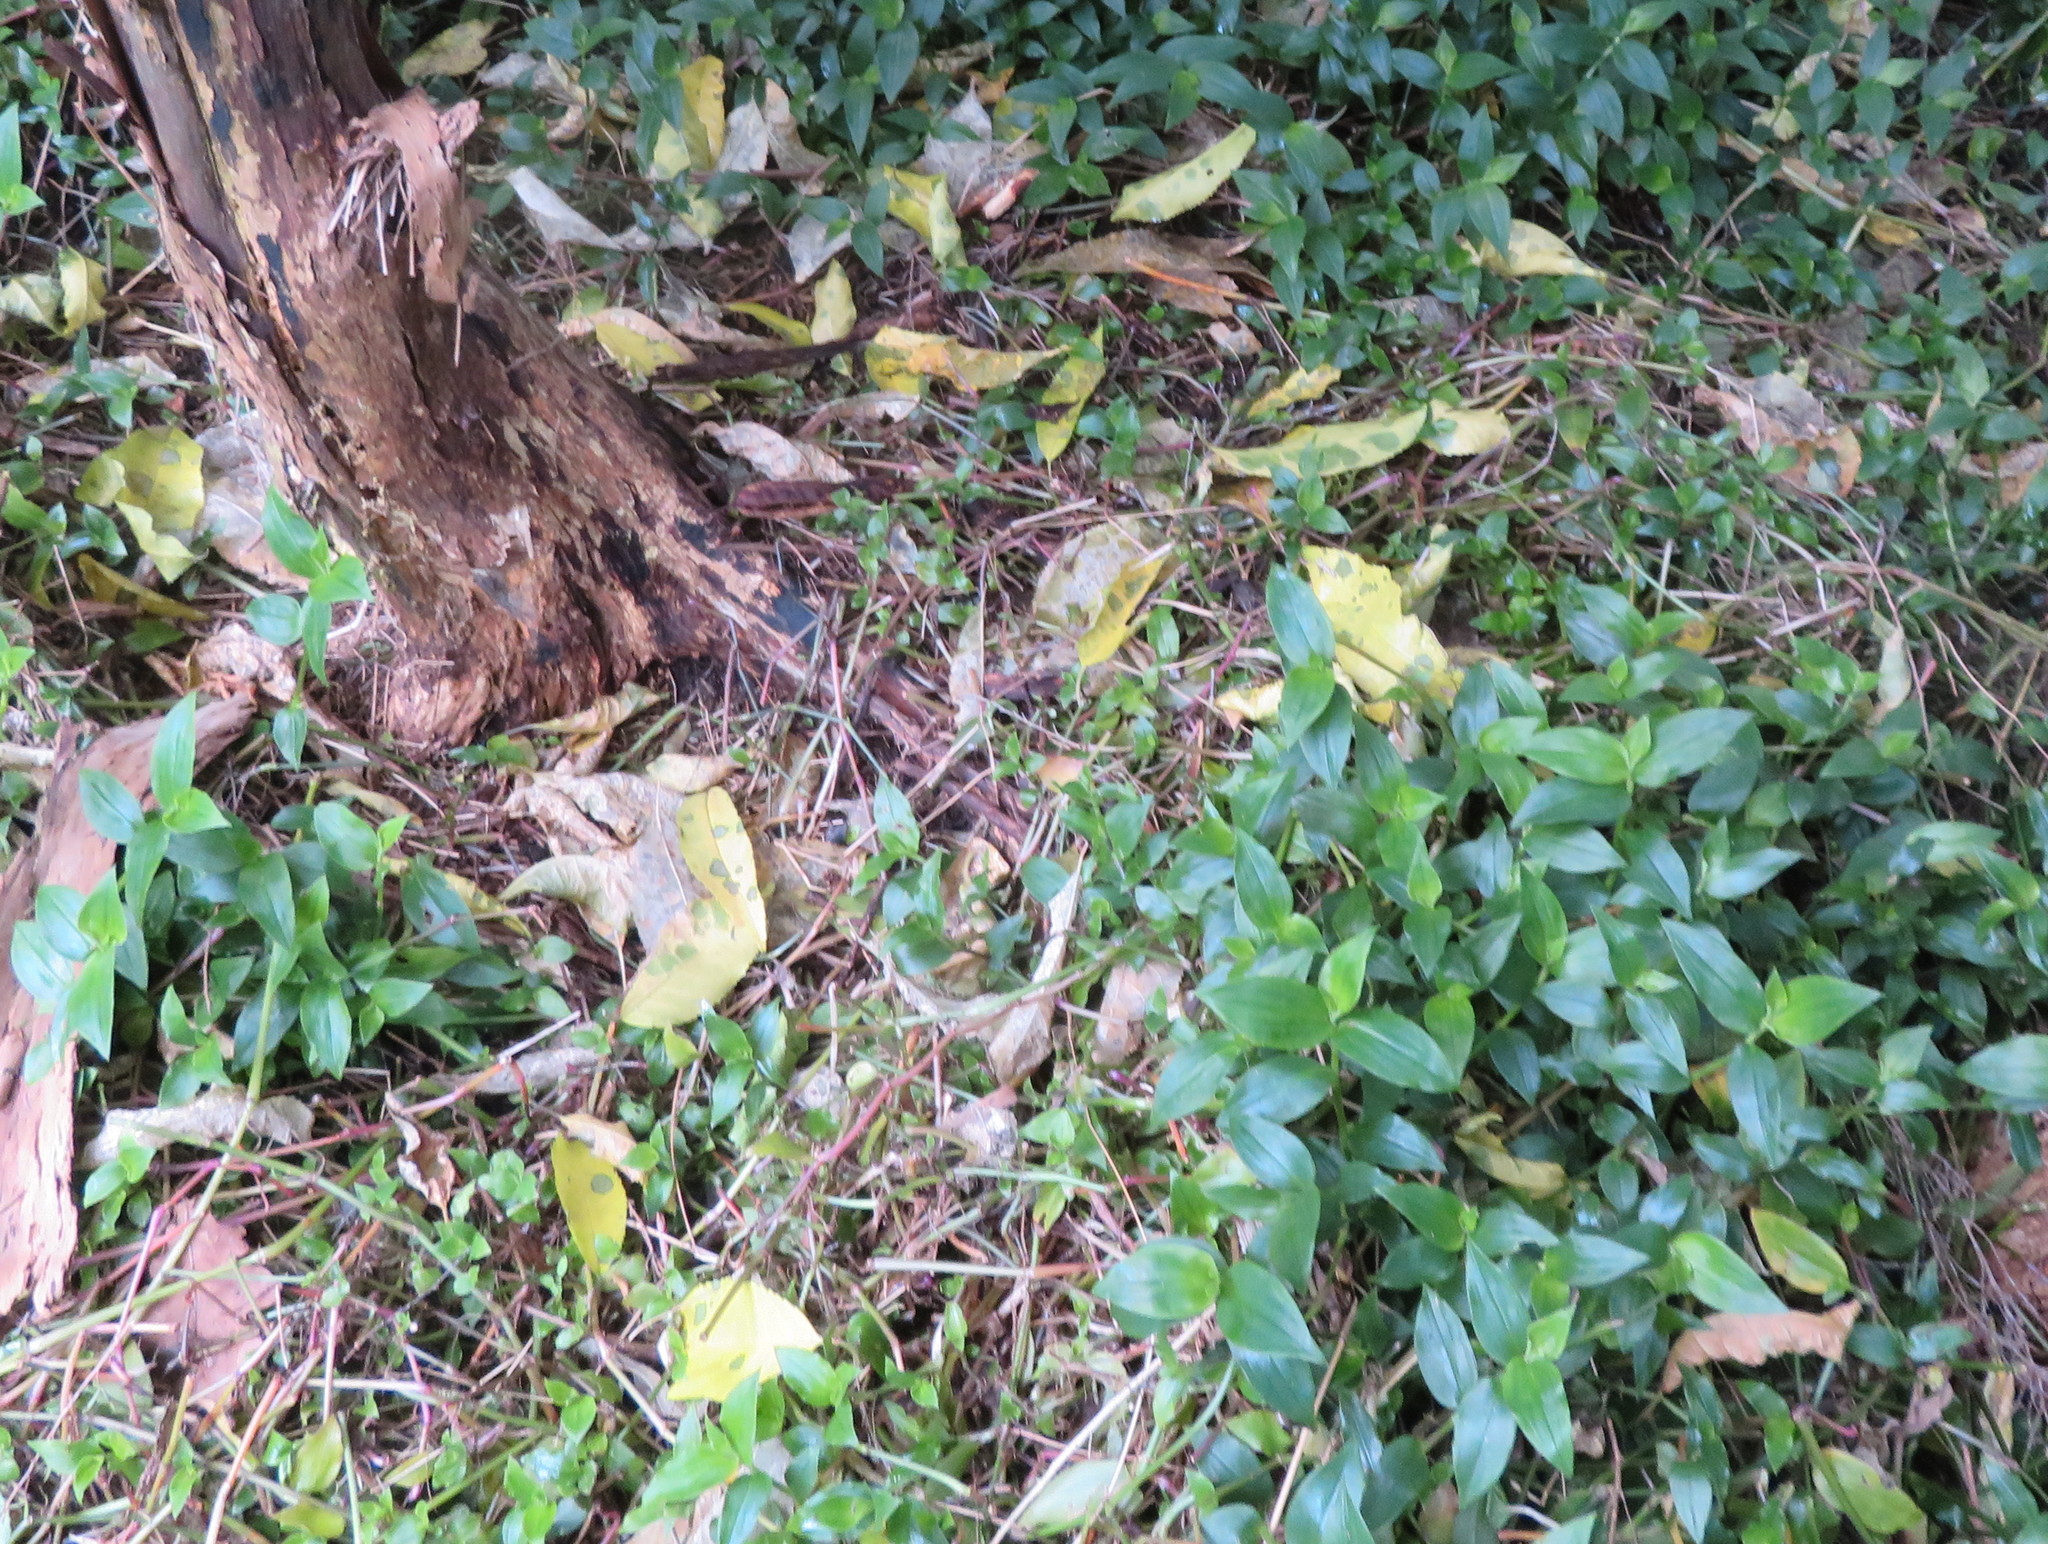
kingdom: Plantae
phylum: Tracheophyta
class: Liliopsida
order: Commelinales
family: Commelinaceae
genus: Tradescantia
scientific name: Tradescantia fluminensis
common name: Wandering-jew
